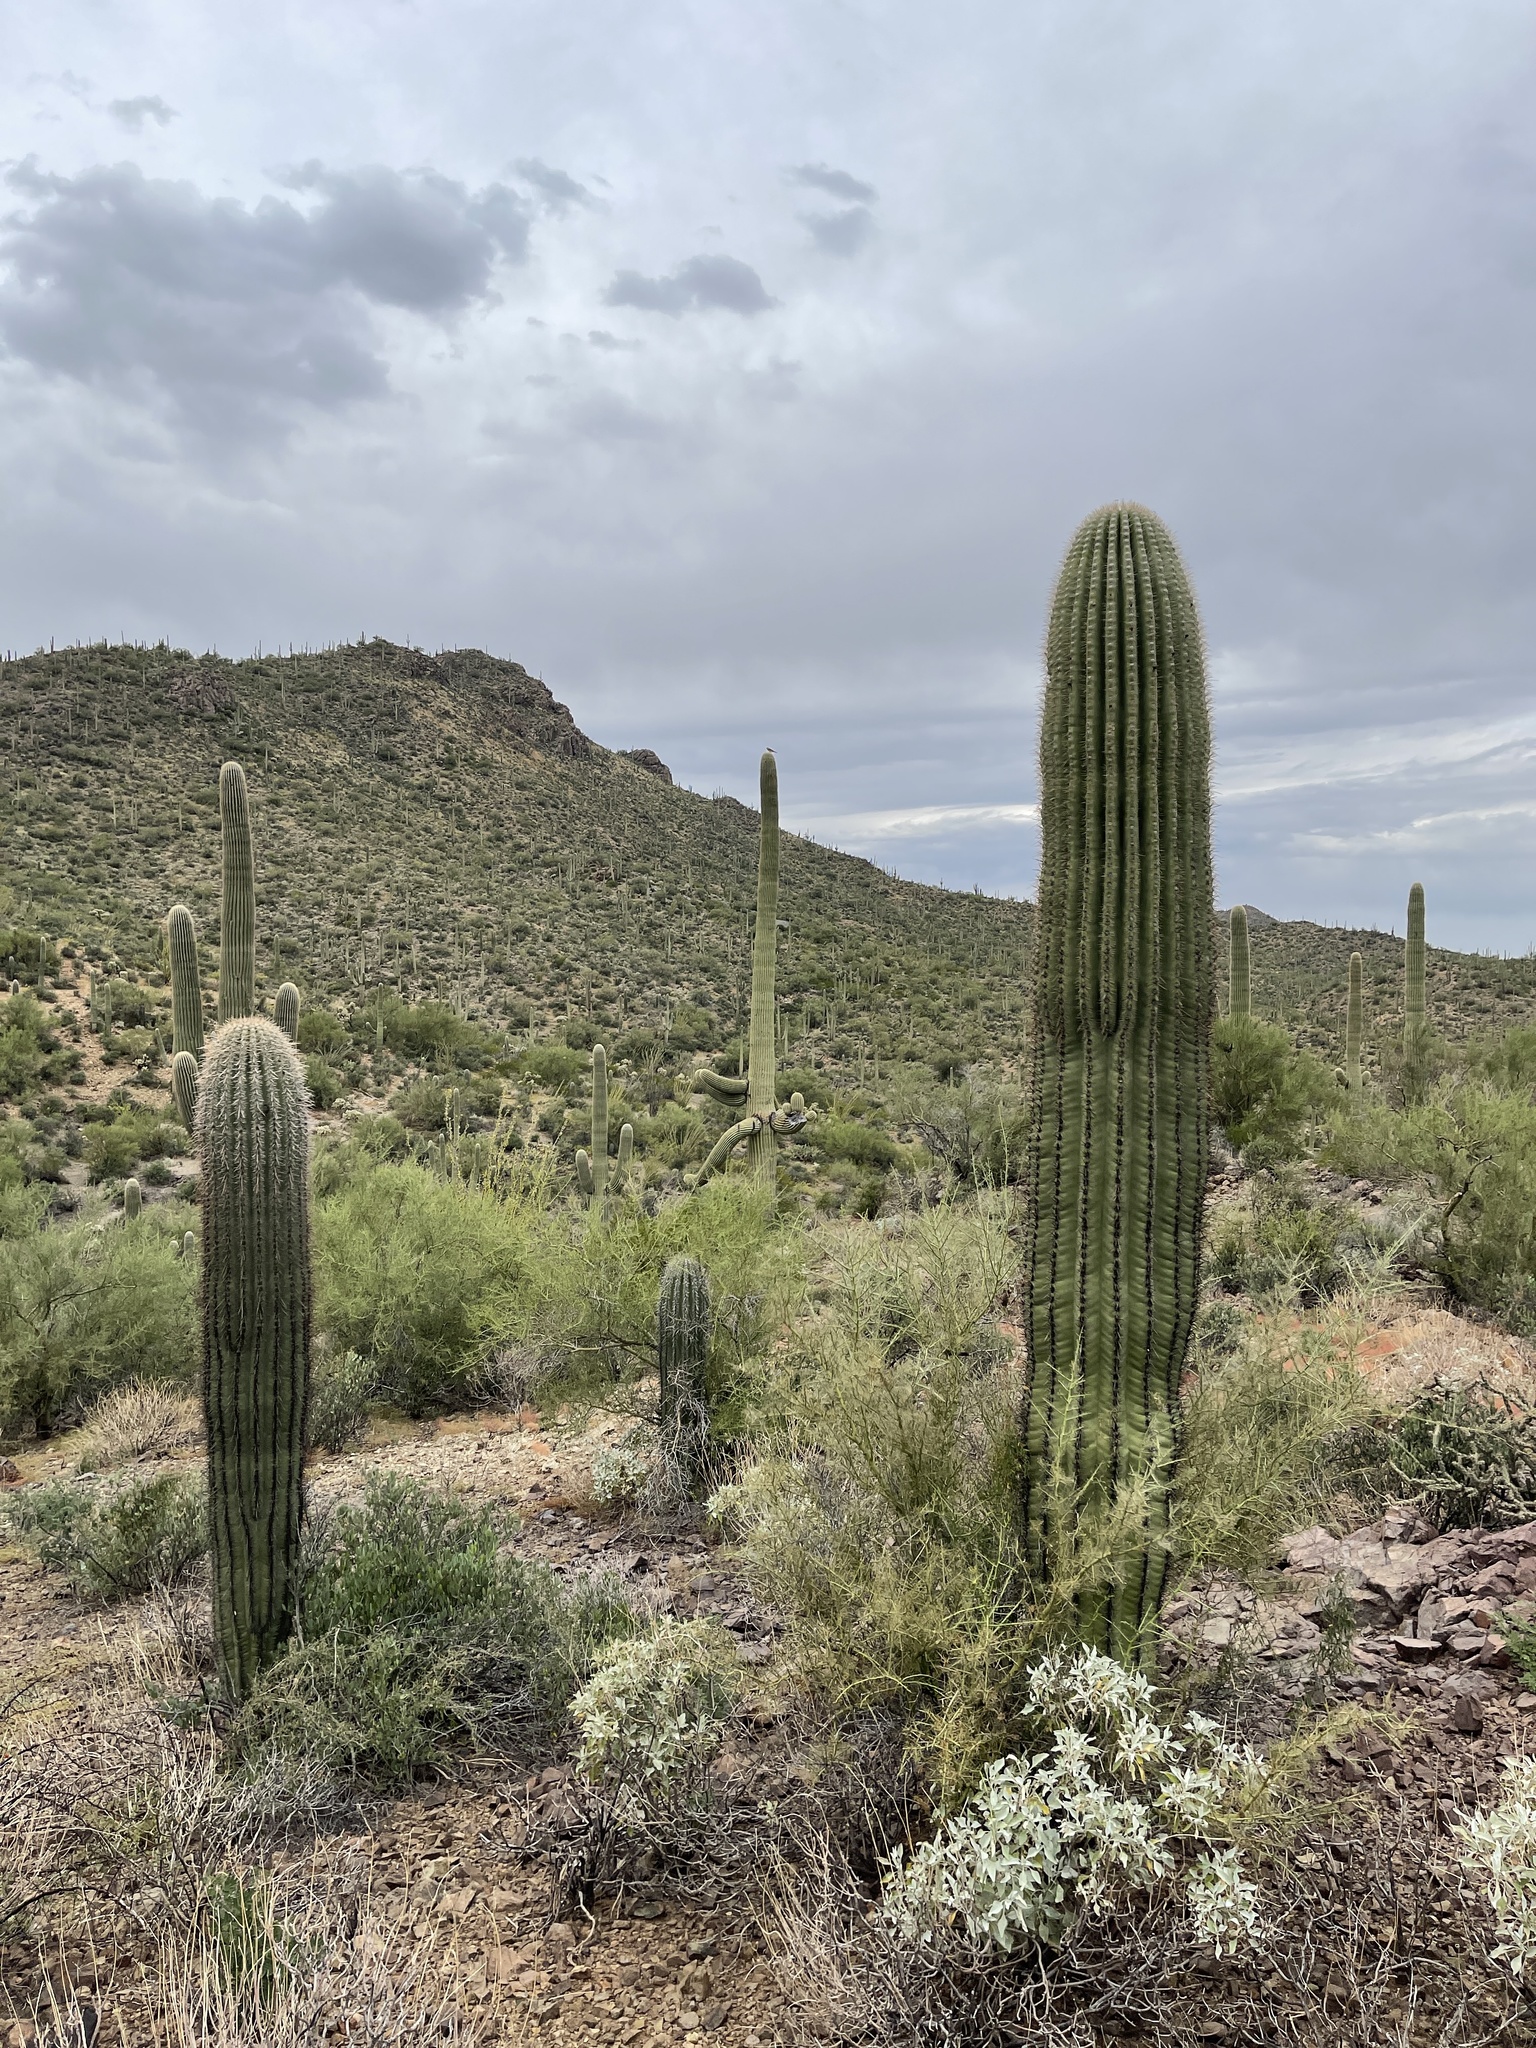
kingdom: Plantae
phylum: Tracheophyta
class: Magnoliopsida
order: Caryophyllales
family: Cactaceae
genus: Carnegiea
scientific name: Carnegiea gigantea
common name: Saguaro
